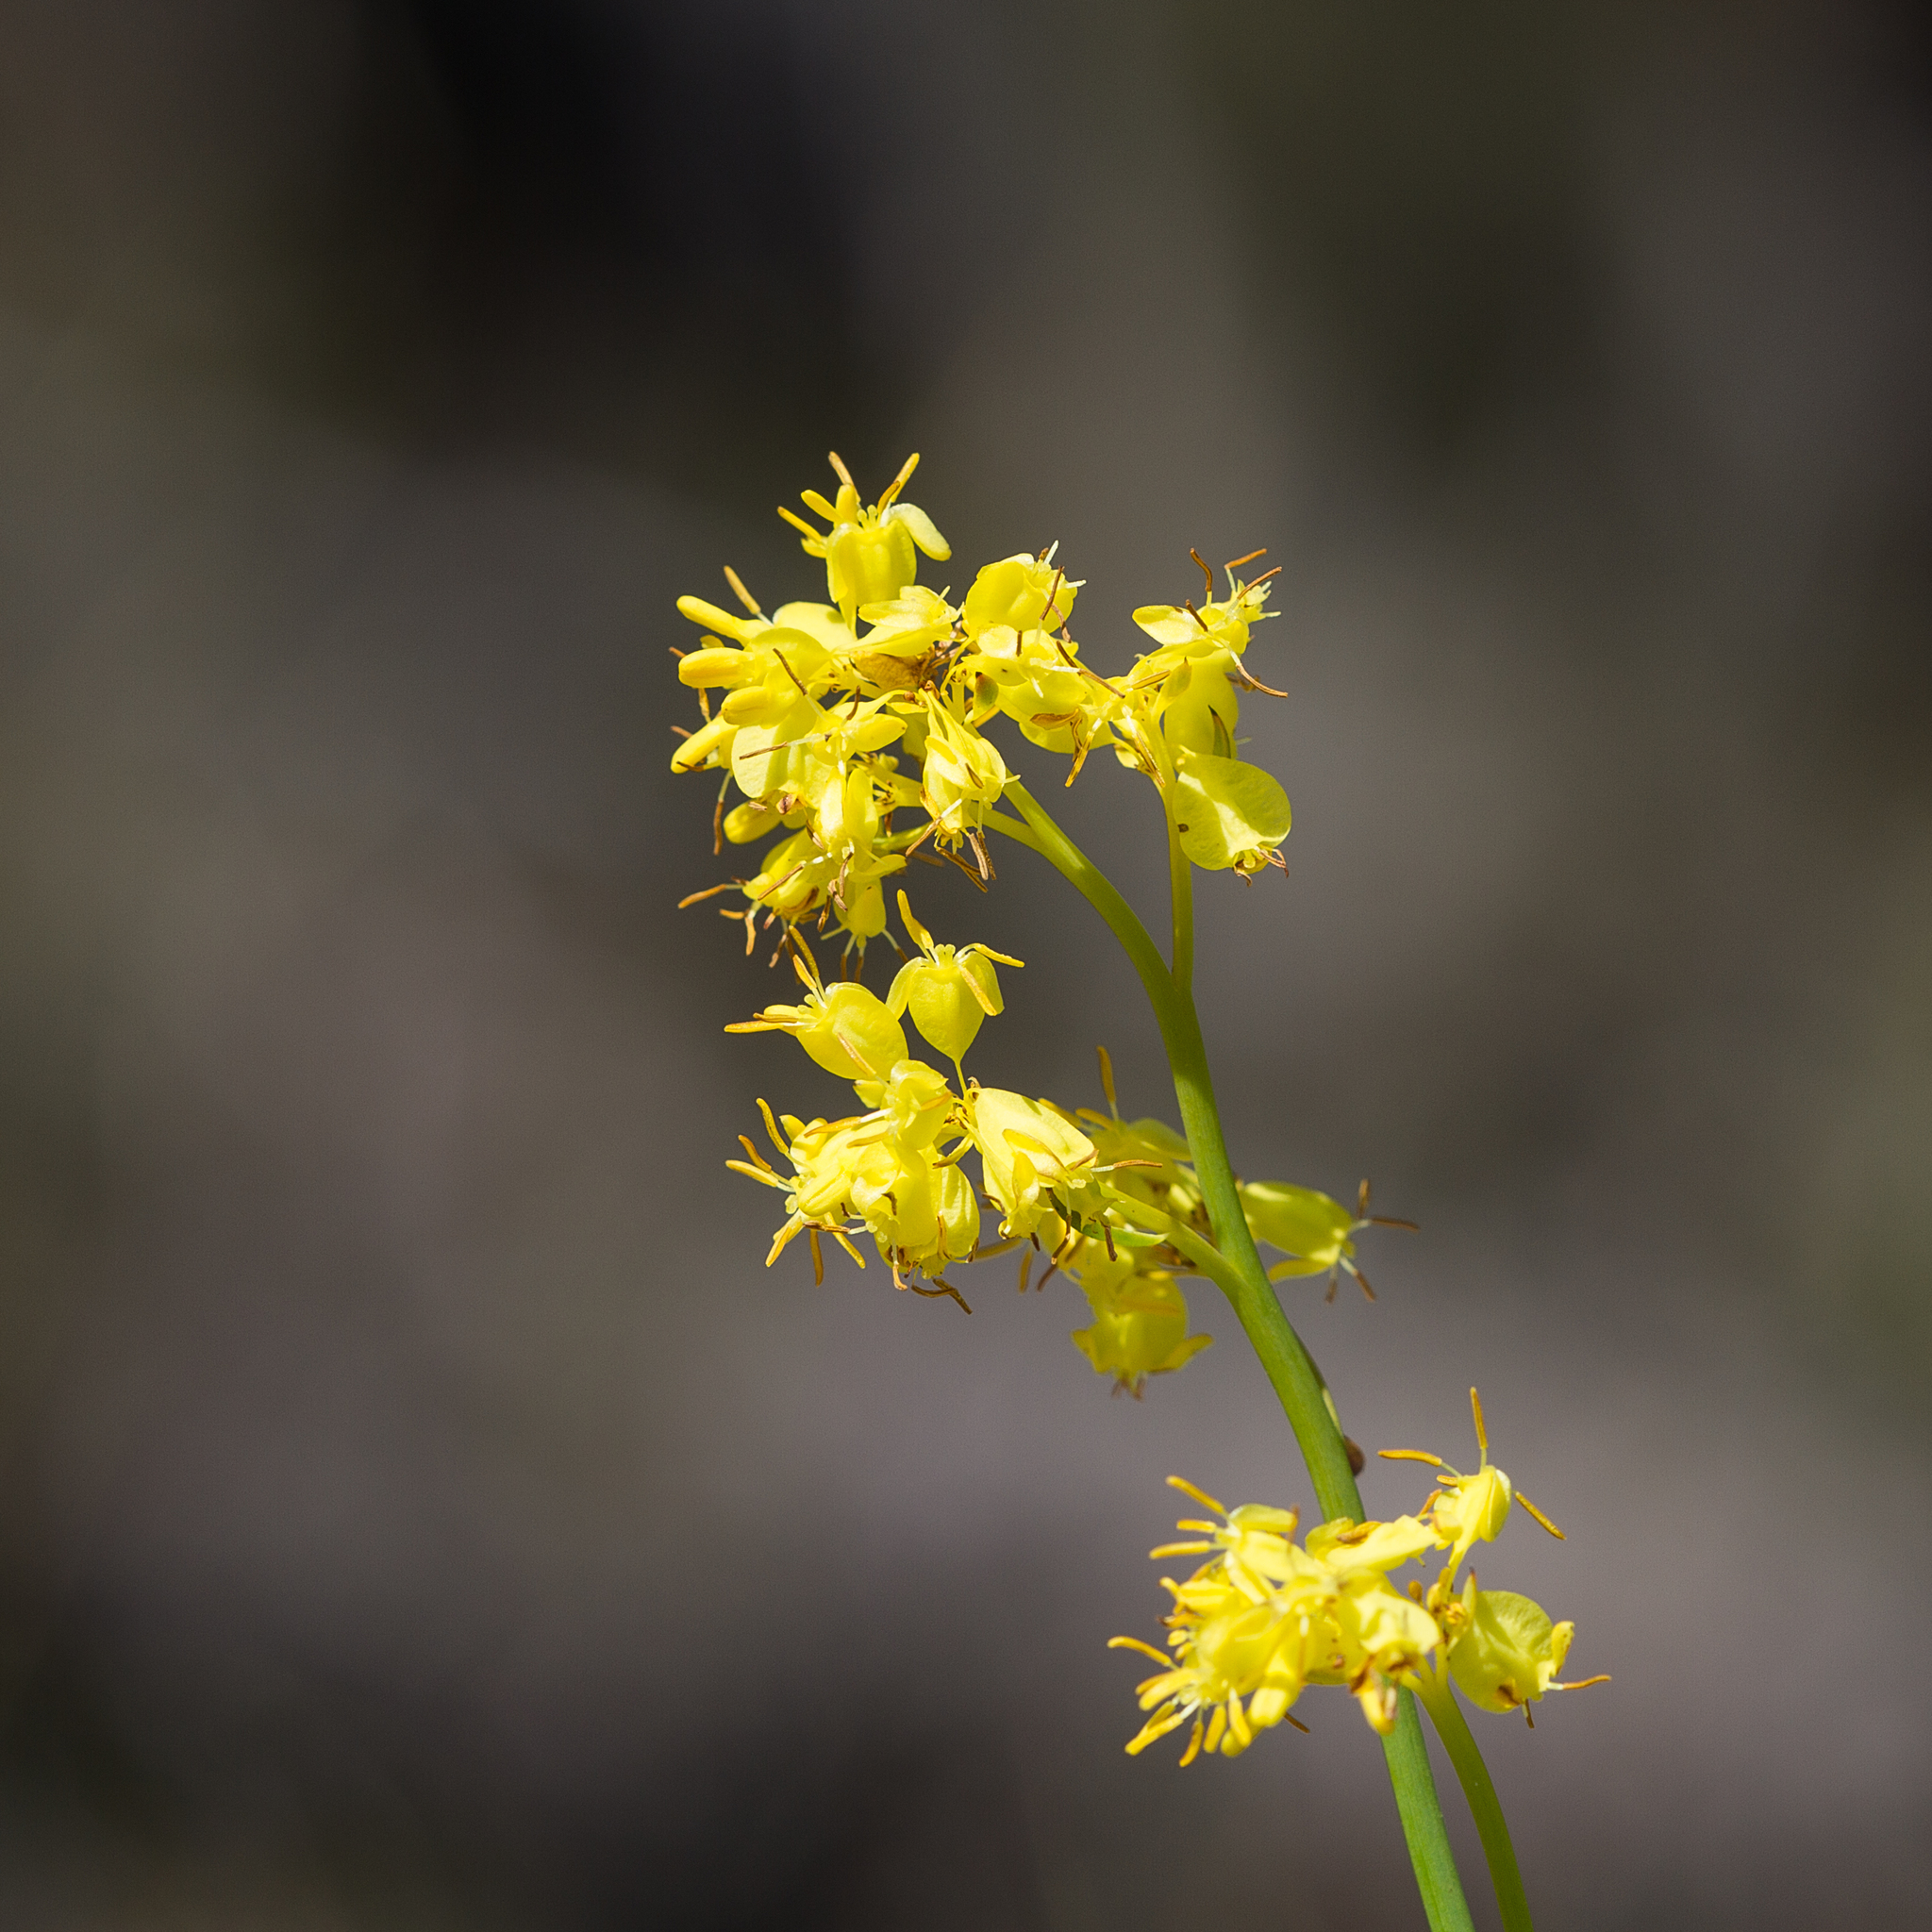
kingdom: Plantae
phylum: Tracheophyta
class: Magnoliopsida
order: Saxifragales
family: Haloragaceae
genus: Glischrocaryon
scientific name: Glischrocaryon behrii
